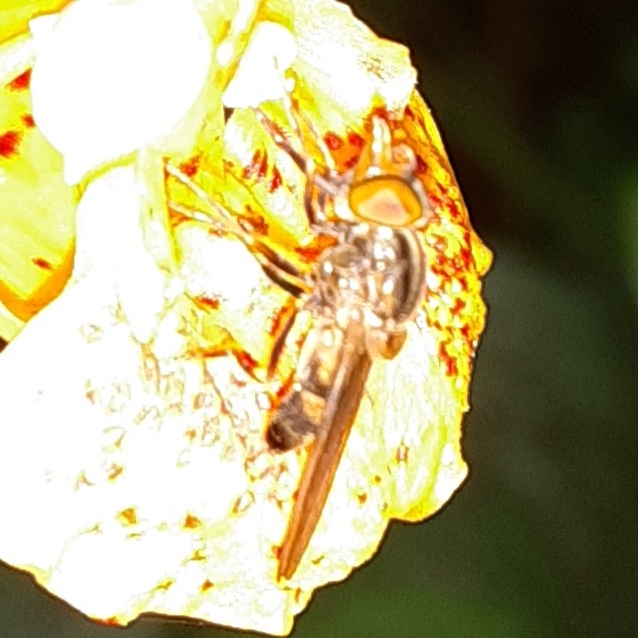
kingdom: Animalia
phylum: Arthropoda
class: Insecta
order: Diptera
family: Syrphidae
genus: Rhingia
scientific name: Rhingia nasica
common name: American snout fly
